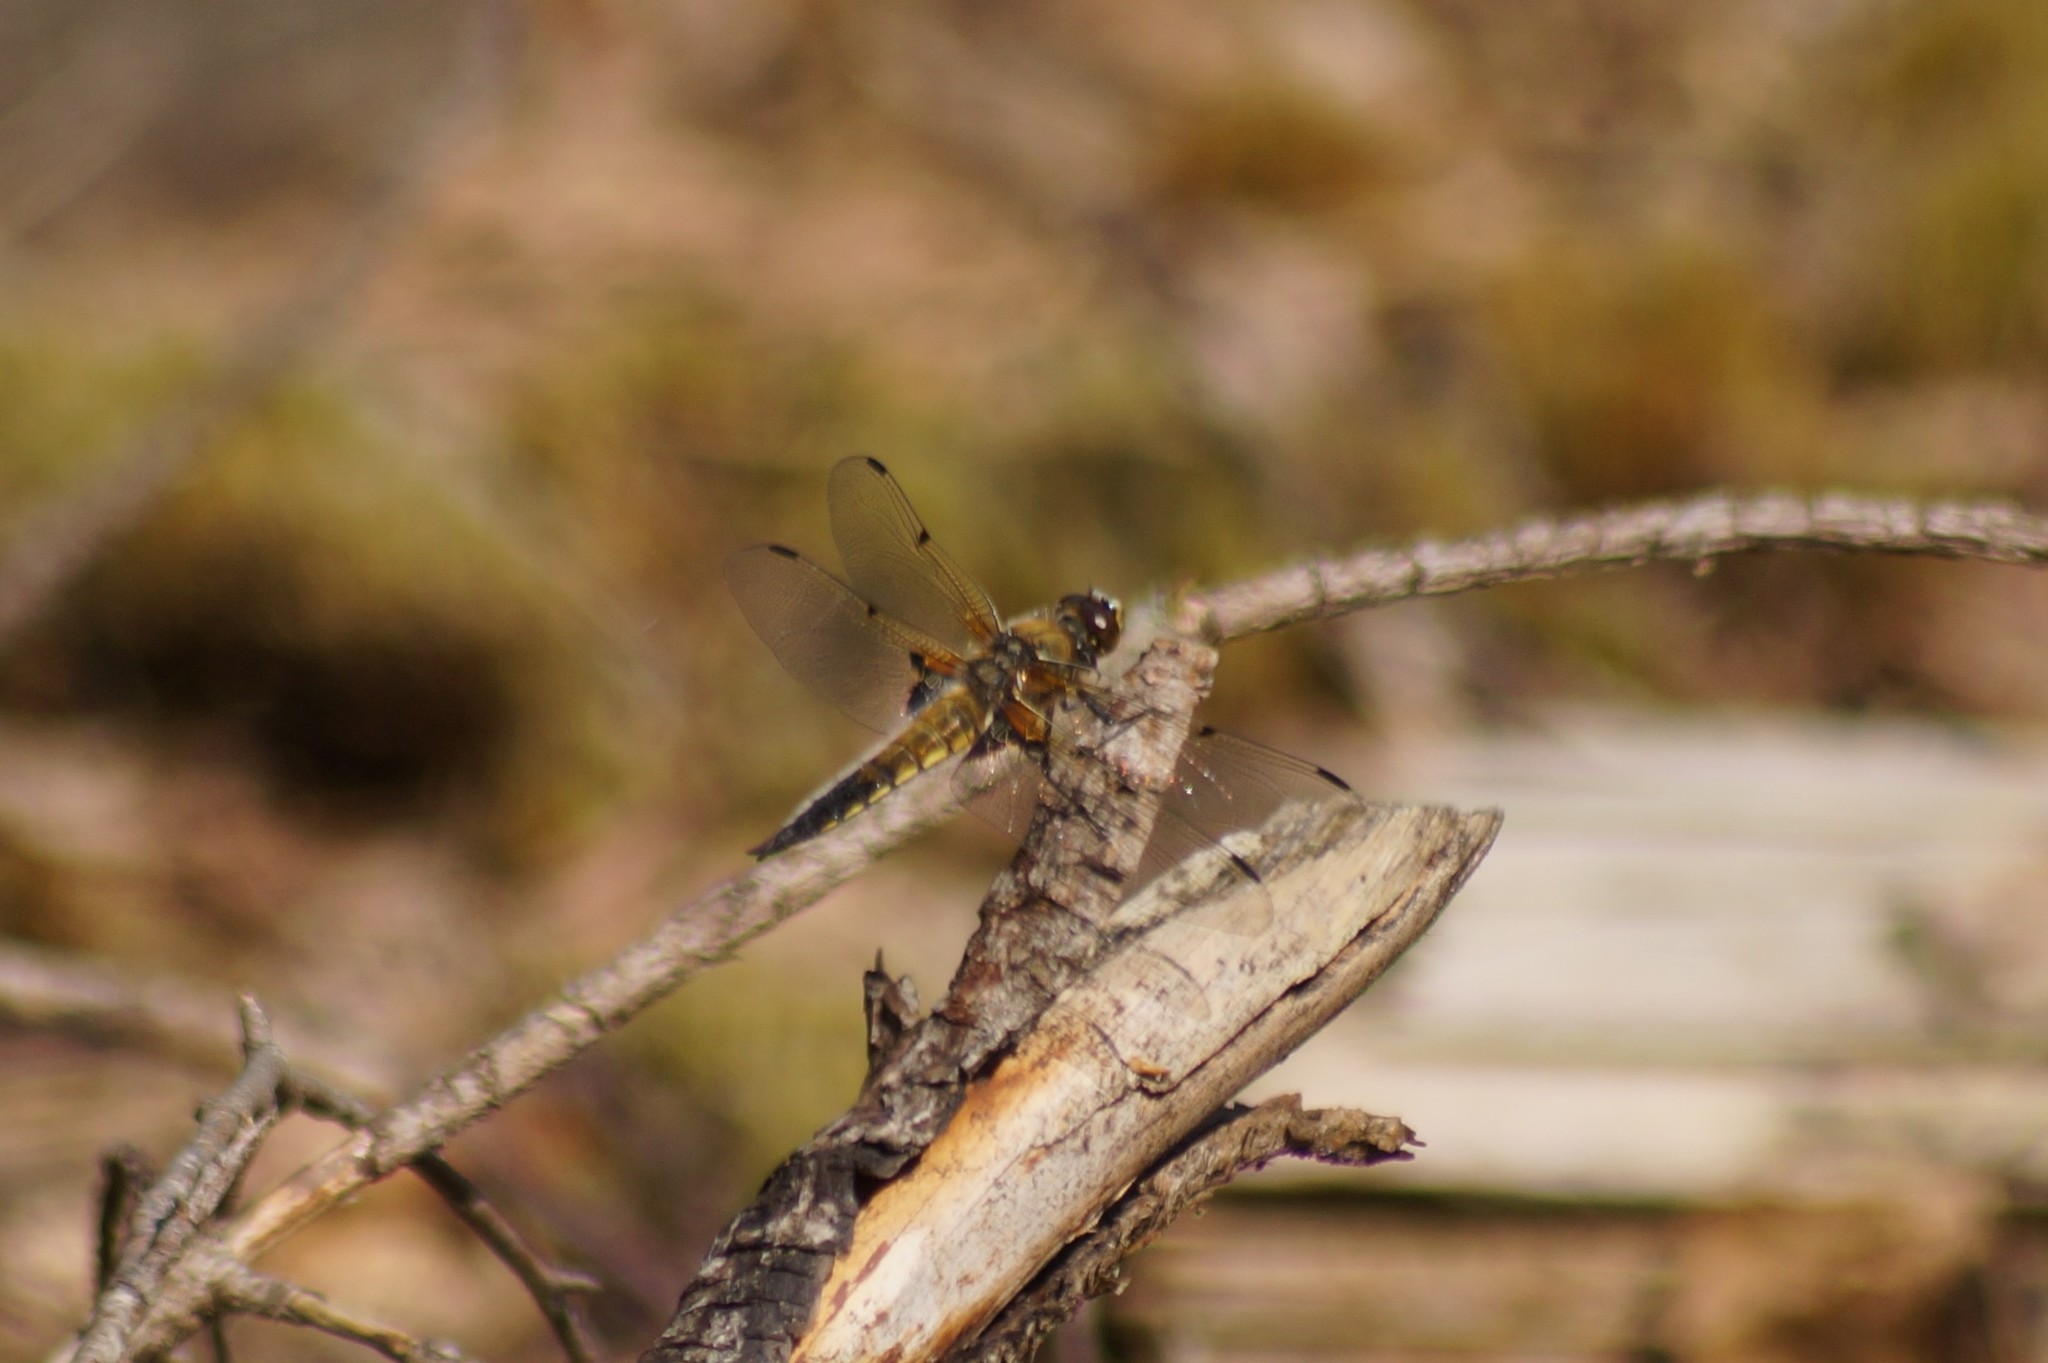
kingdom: Animalia
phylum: Arthropoda
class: Insecta
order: Odonata
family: Libellulidae
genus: Libellula
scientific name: Libellula quadrimaculata
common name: Four-spotted chaser
